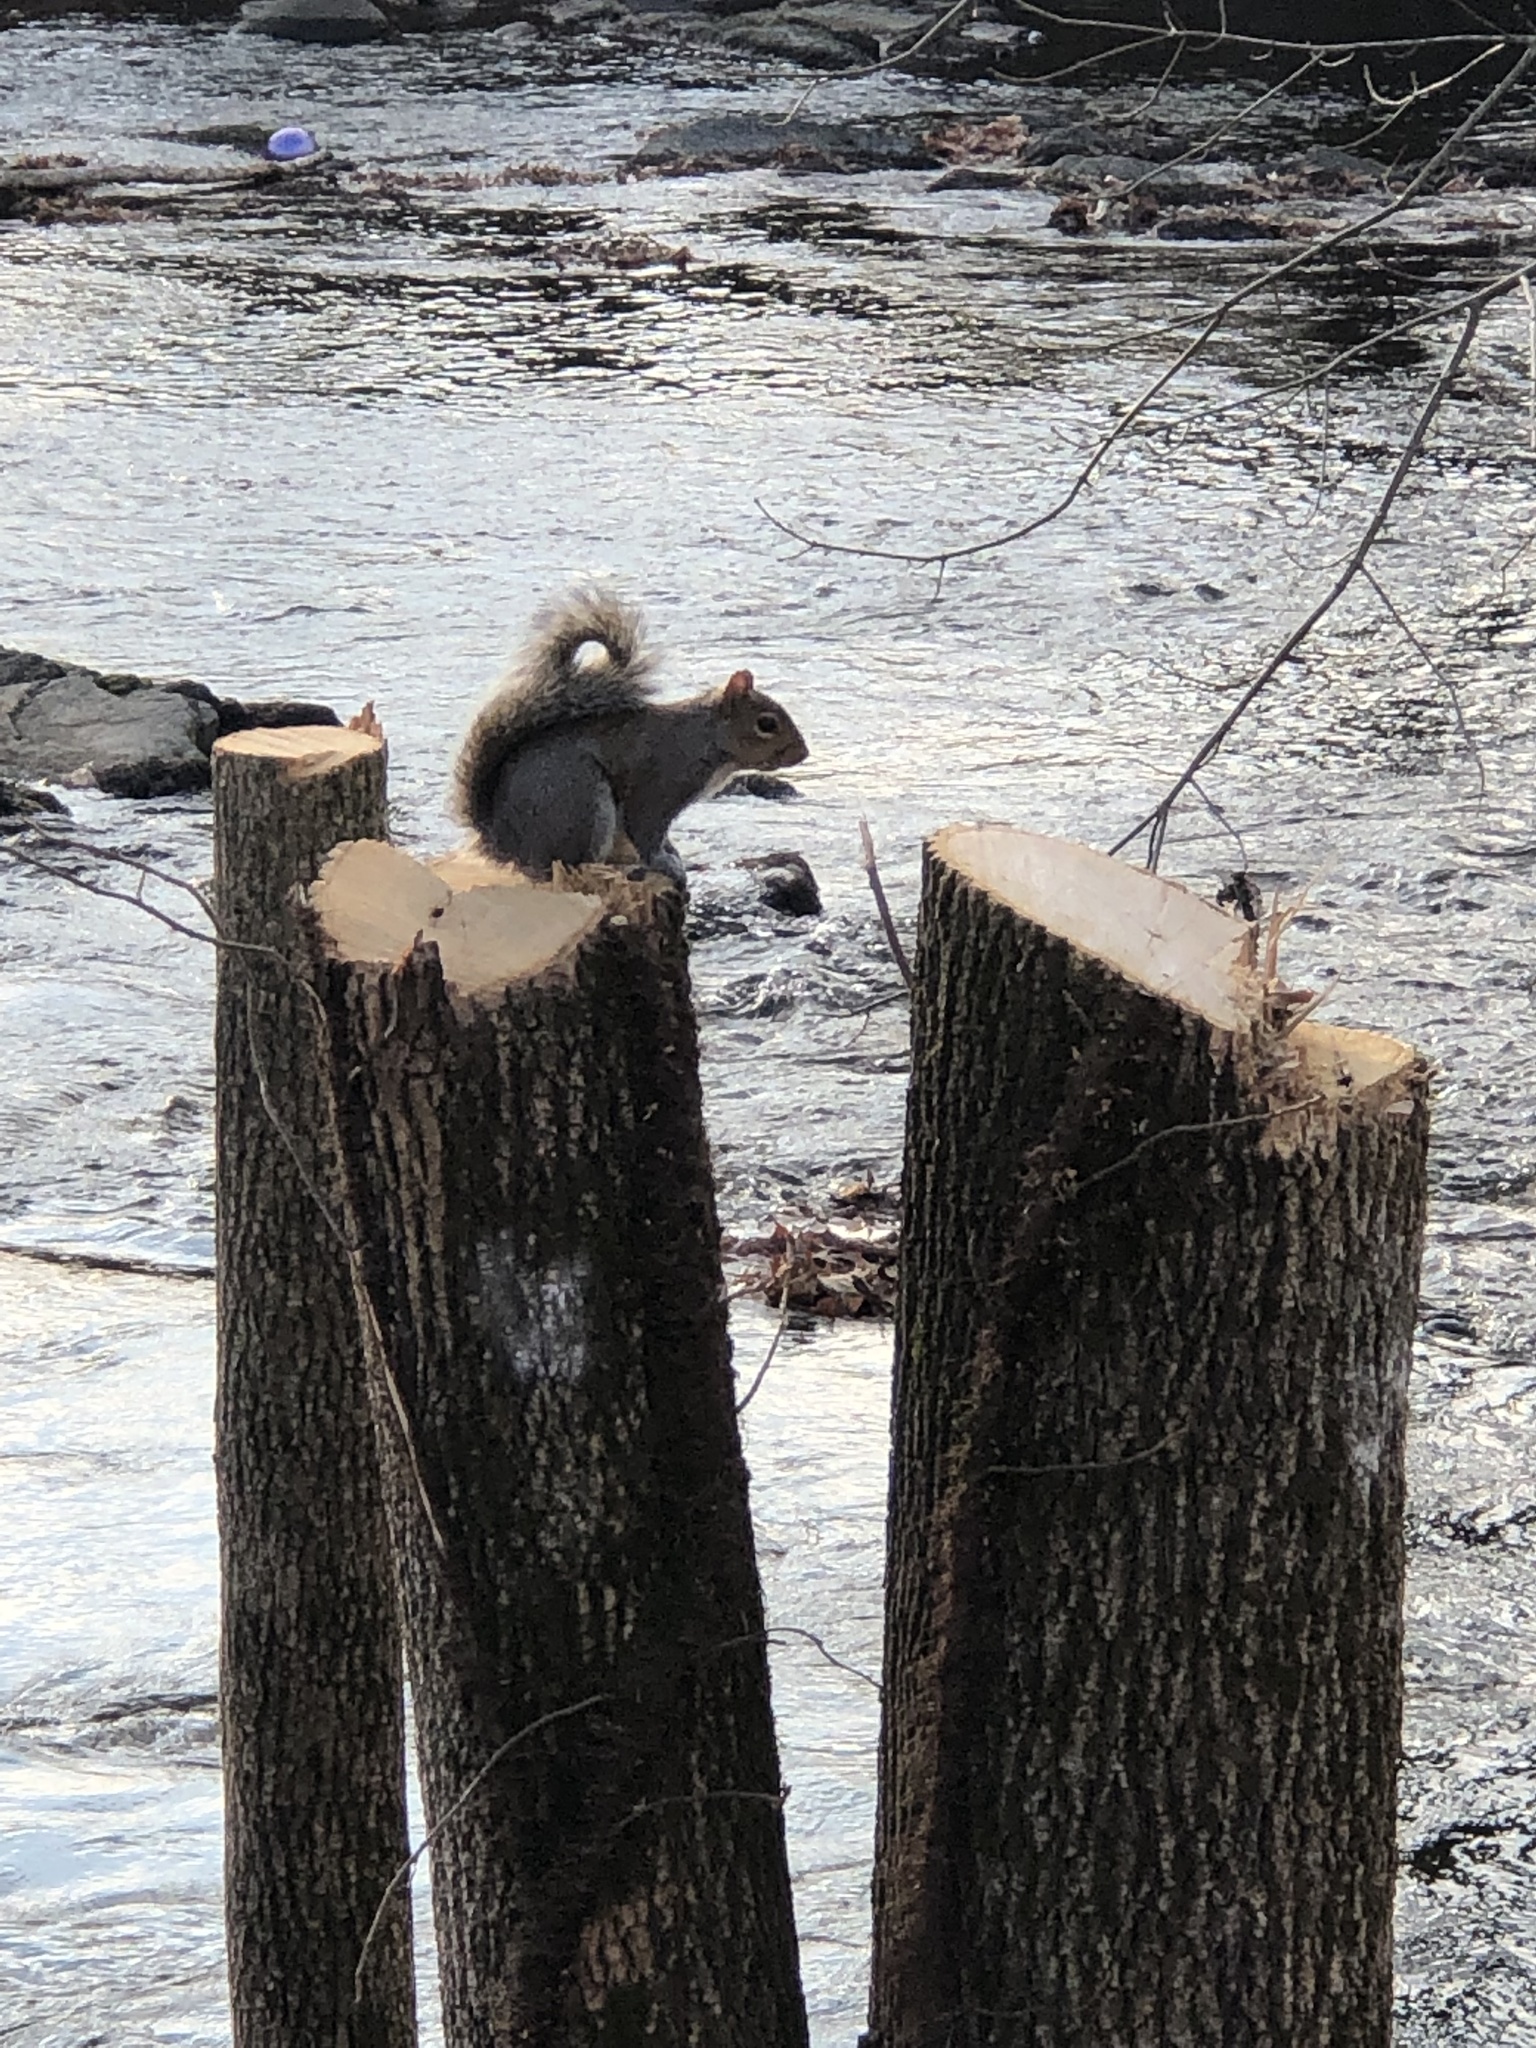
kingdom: Animalia
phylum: Chordata
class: Mammalia
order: Rodentia
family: Sciuridae
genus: Sciurus
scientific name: Sciurus carolinensis
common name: Eastern gray squirrel
